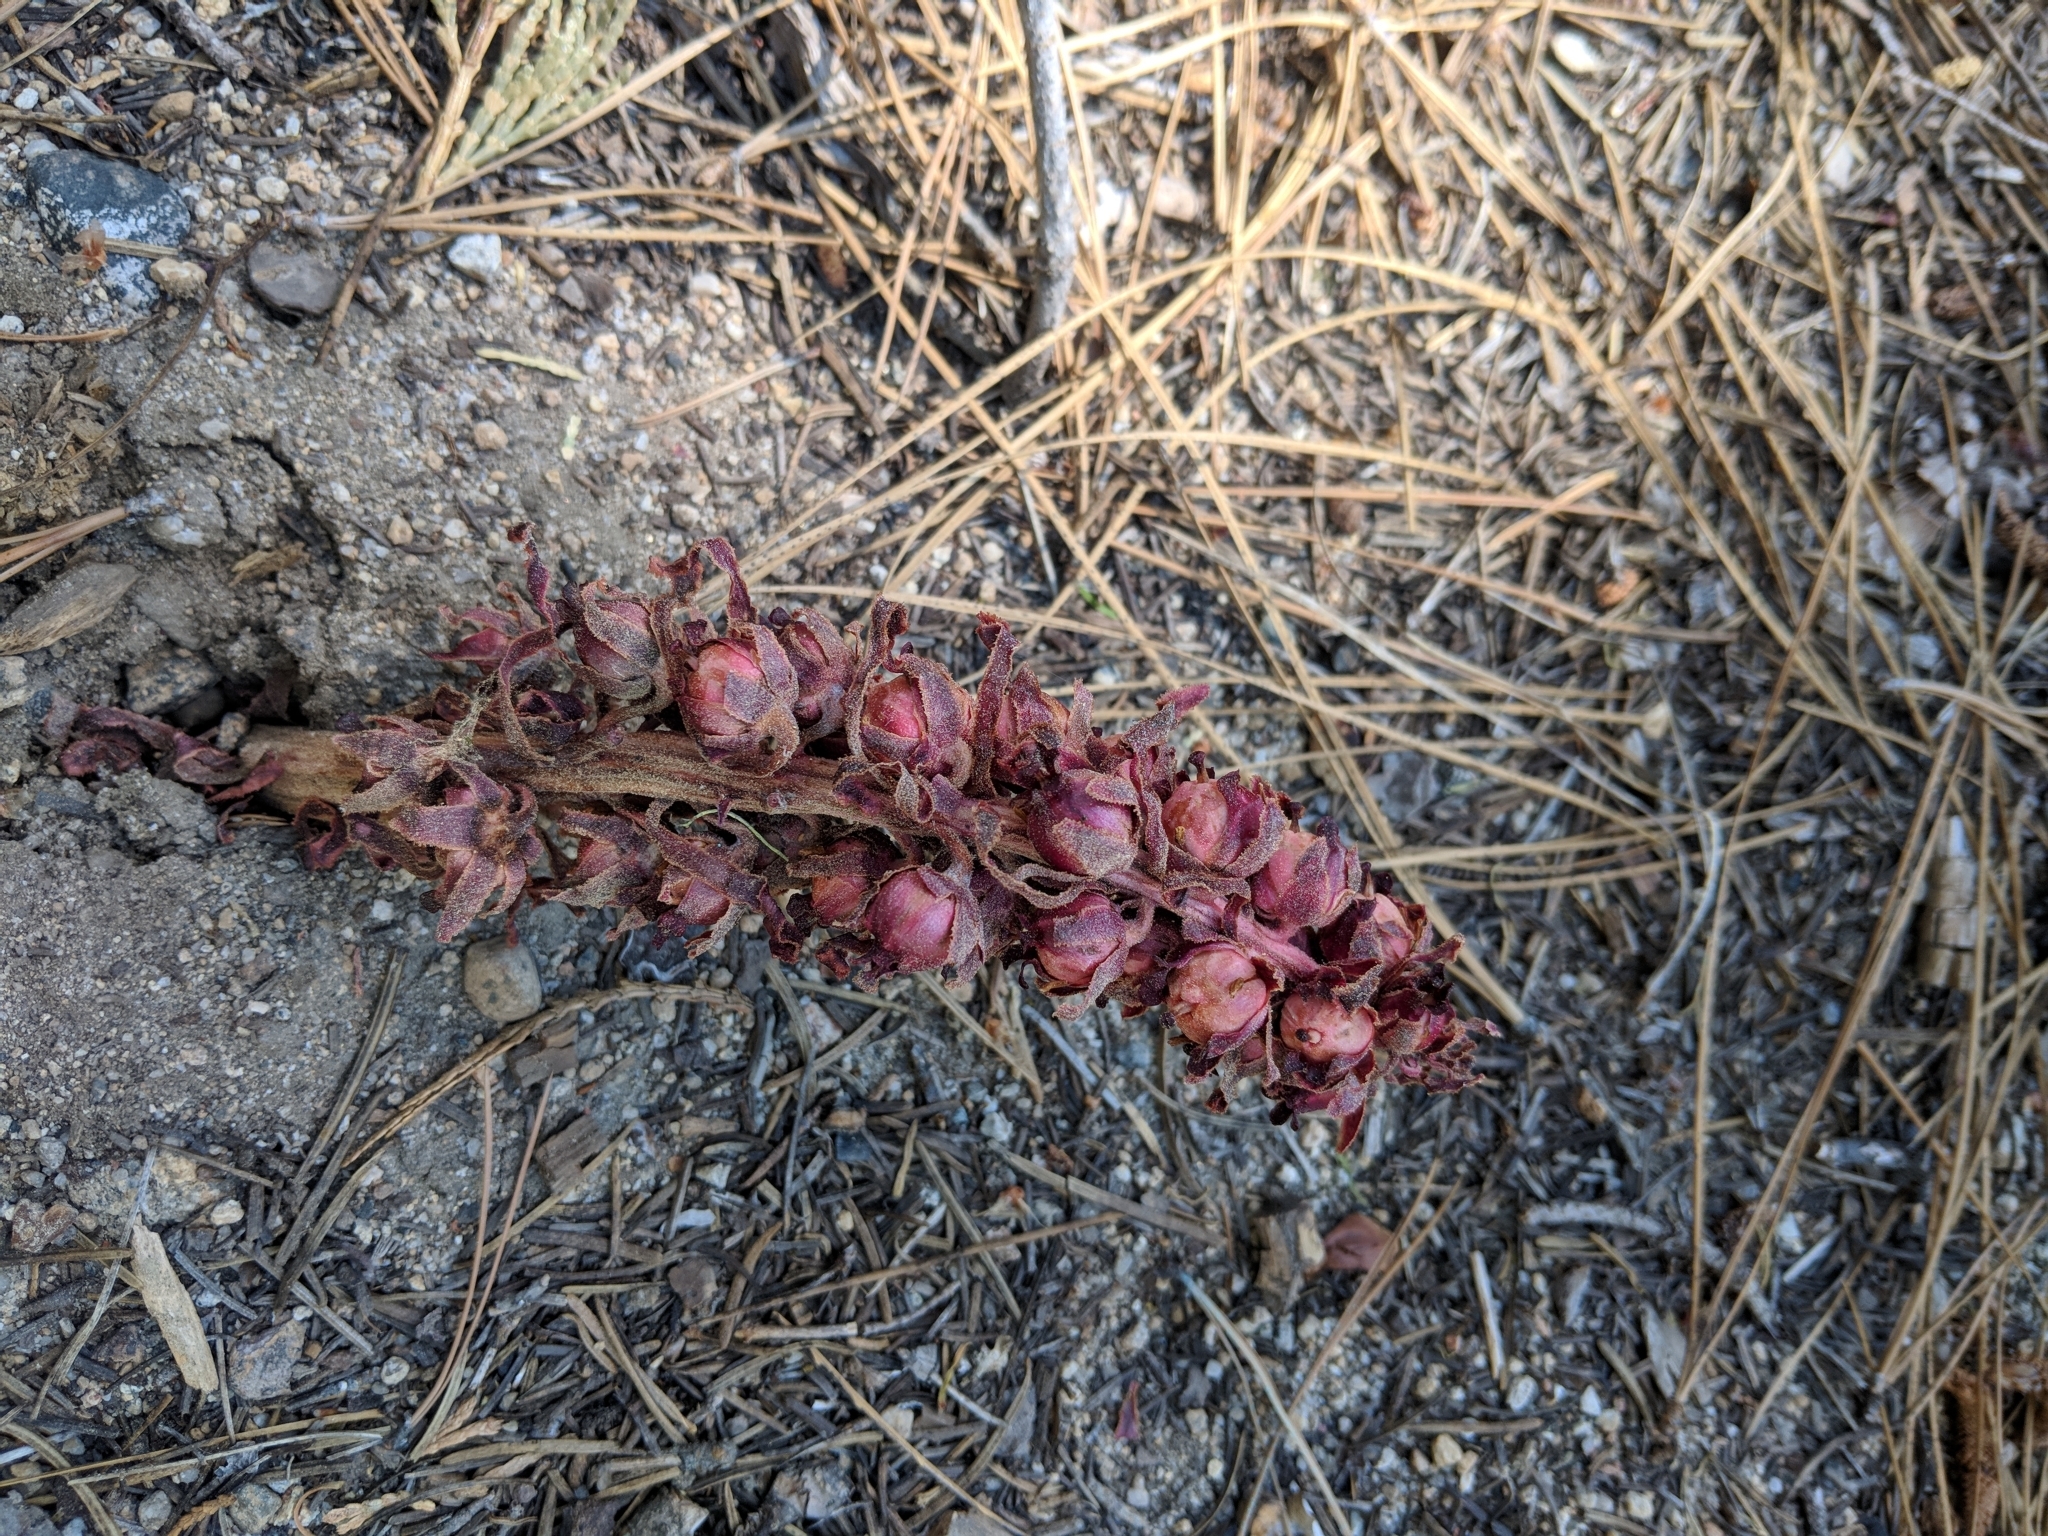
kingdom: Plantae
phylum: Tracheophyta
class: Magnoliopsida
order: Ericales
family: Ericaceae
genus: Sarcodes
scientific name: Sarcodes sanguinea
